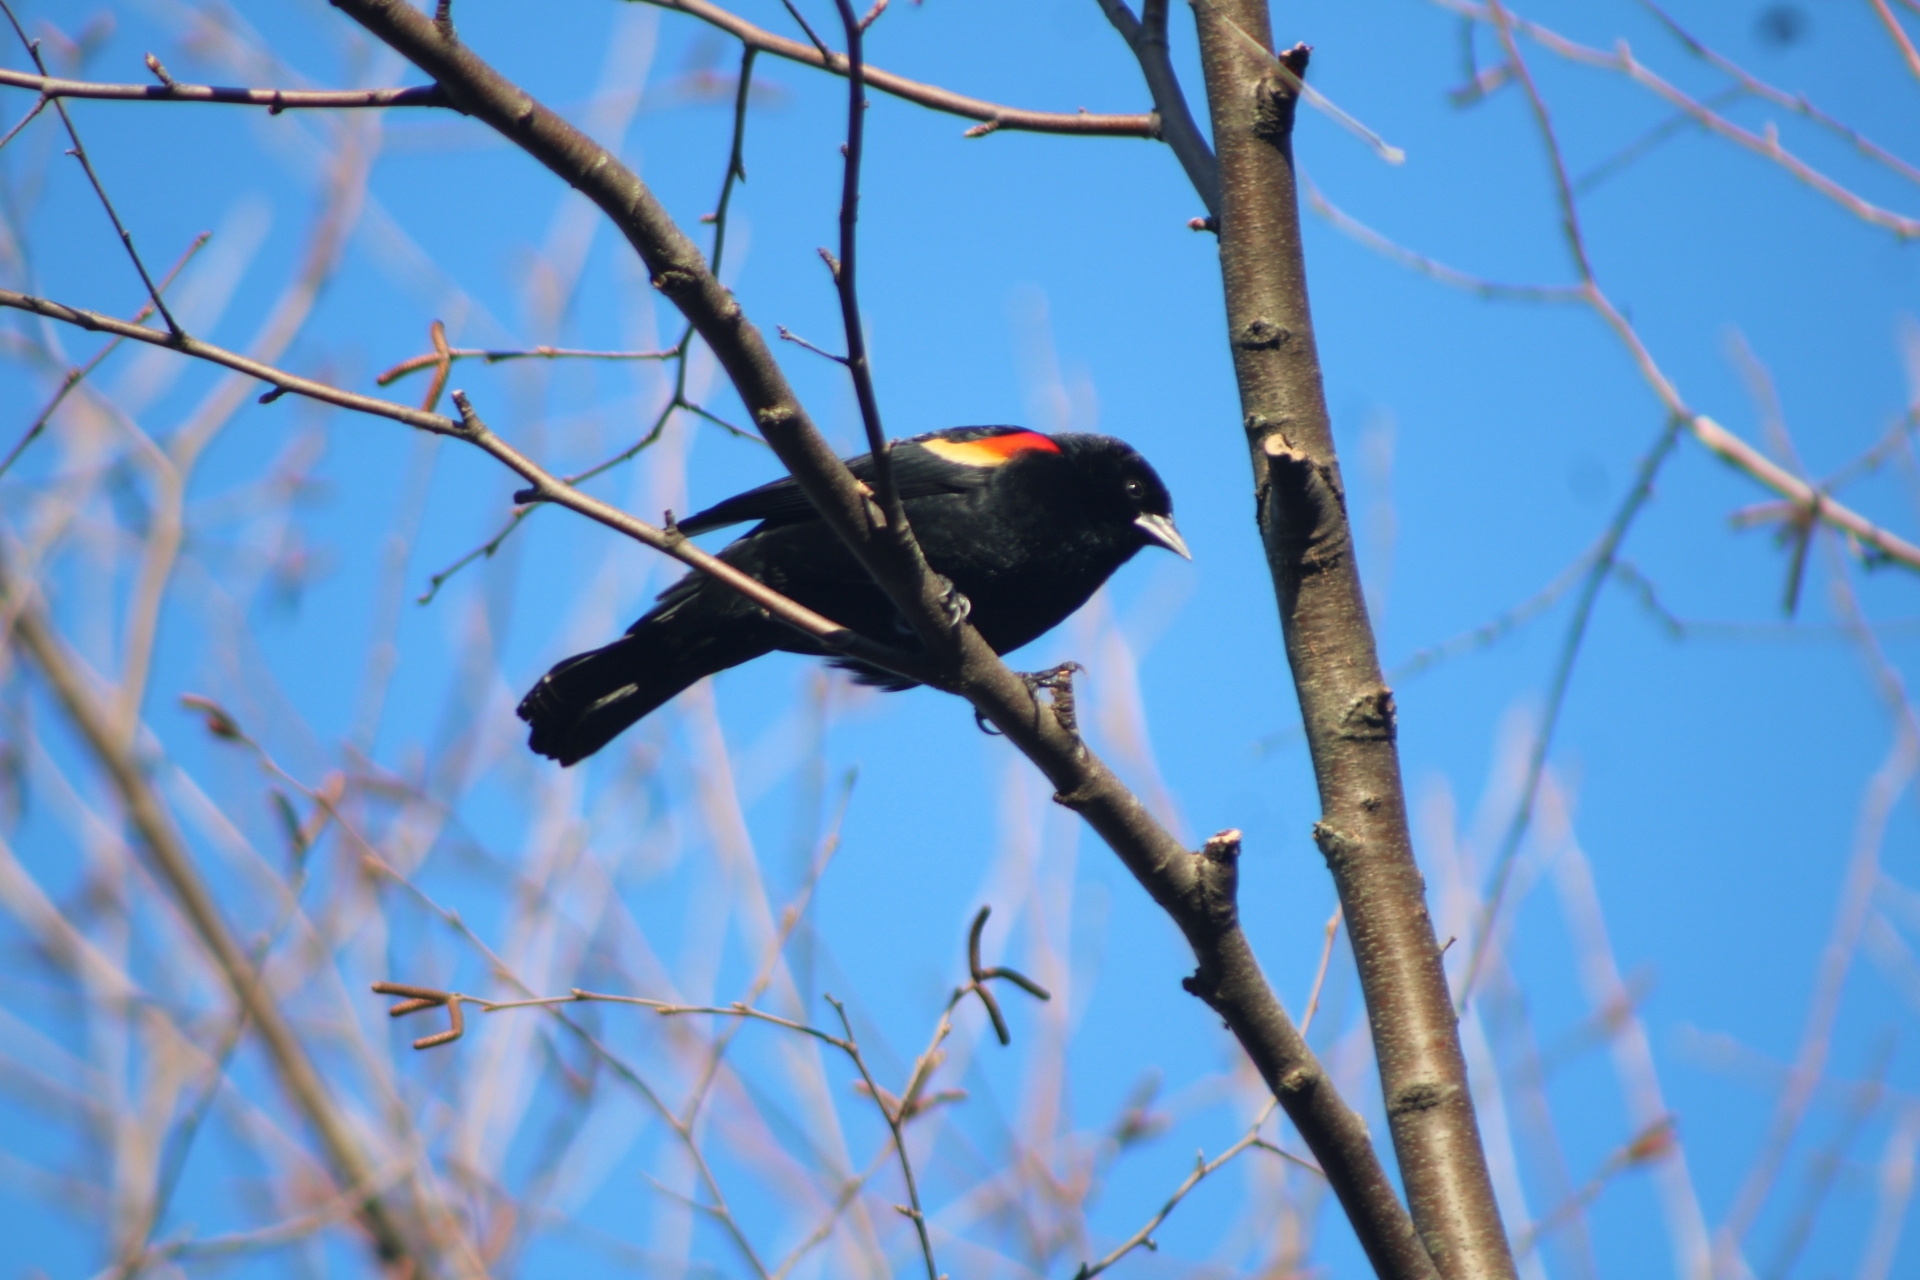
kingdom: Animalia
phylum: Chordata
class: Aves
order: Passeriformes
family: Icteridae
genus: Agelaius
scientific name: Agelaius phoeniceus
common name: Red-winged blackbird
